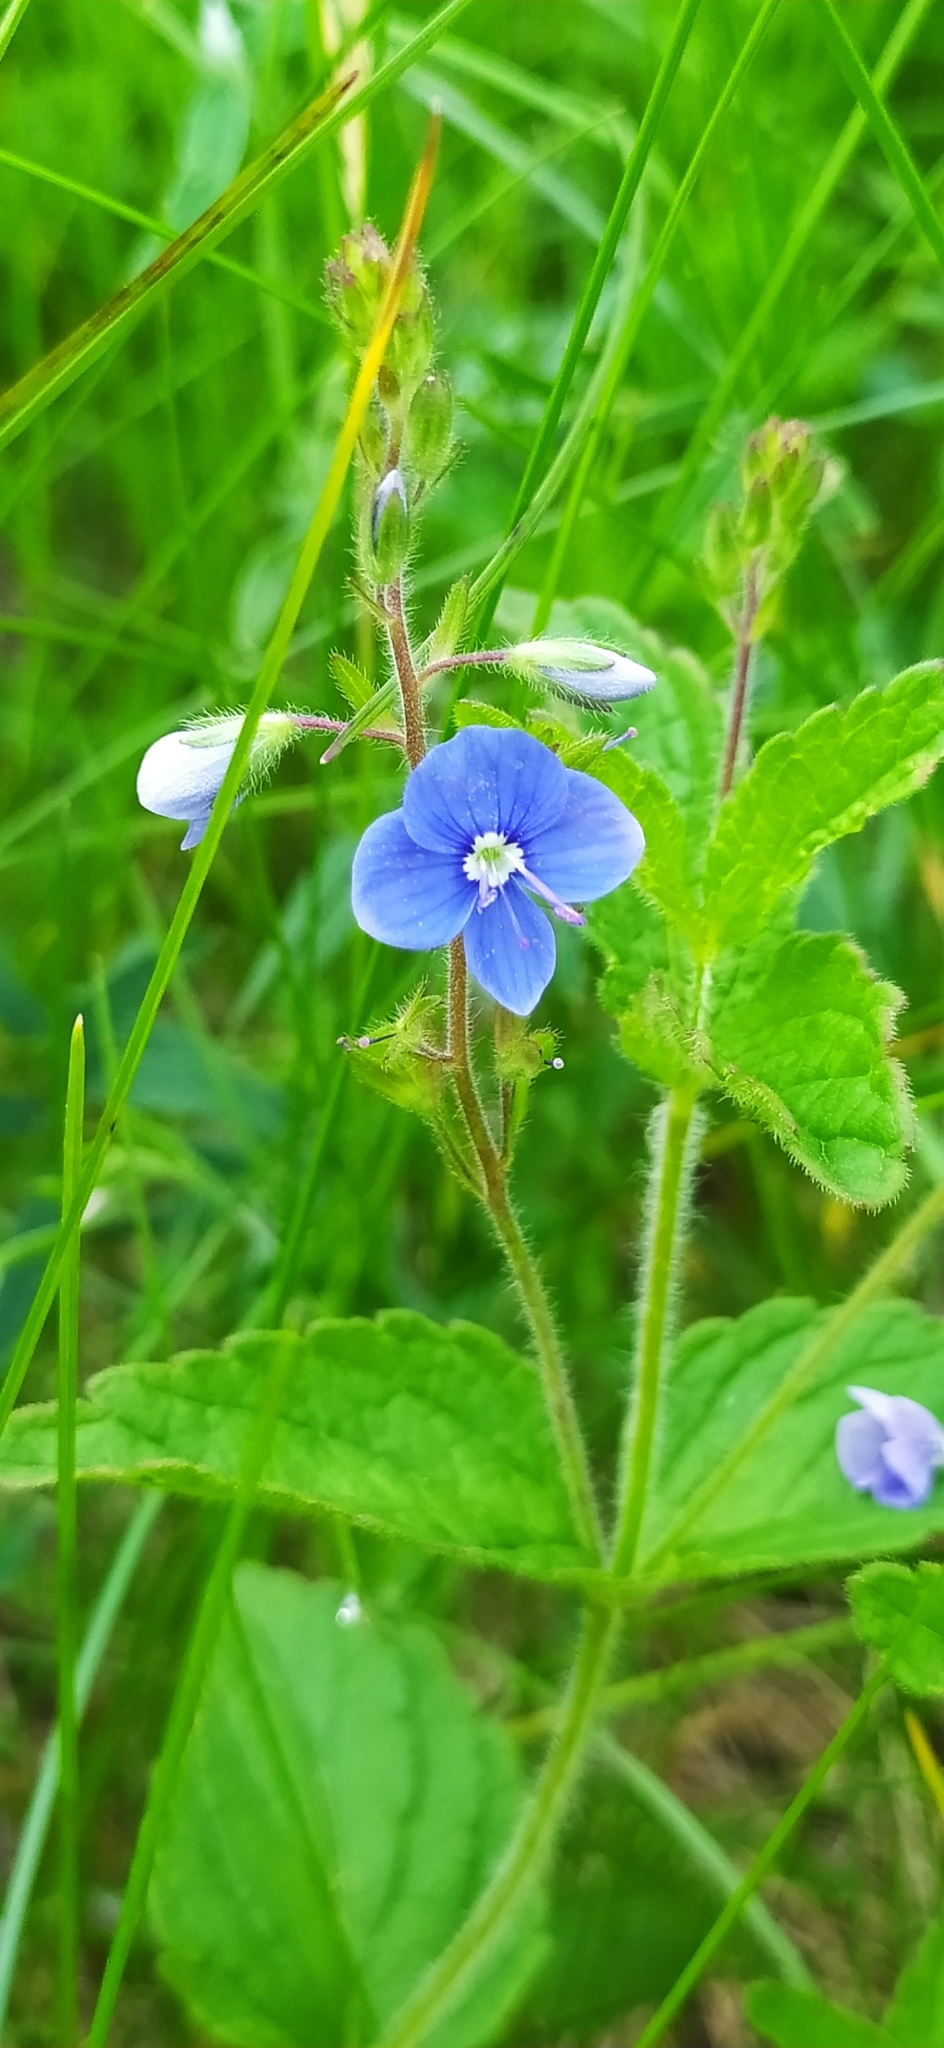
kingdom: Plantae
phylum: Tracheophyta
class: Magnoliopsida
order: Lamiales
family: Plantaginaceae
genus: Veronica
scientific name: Veronica chamaedrys
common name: Germander speedwell
